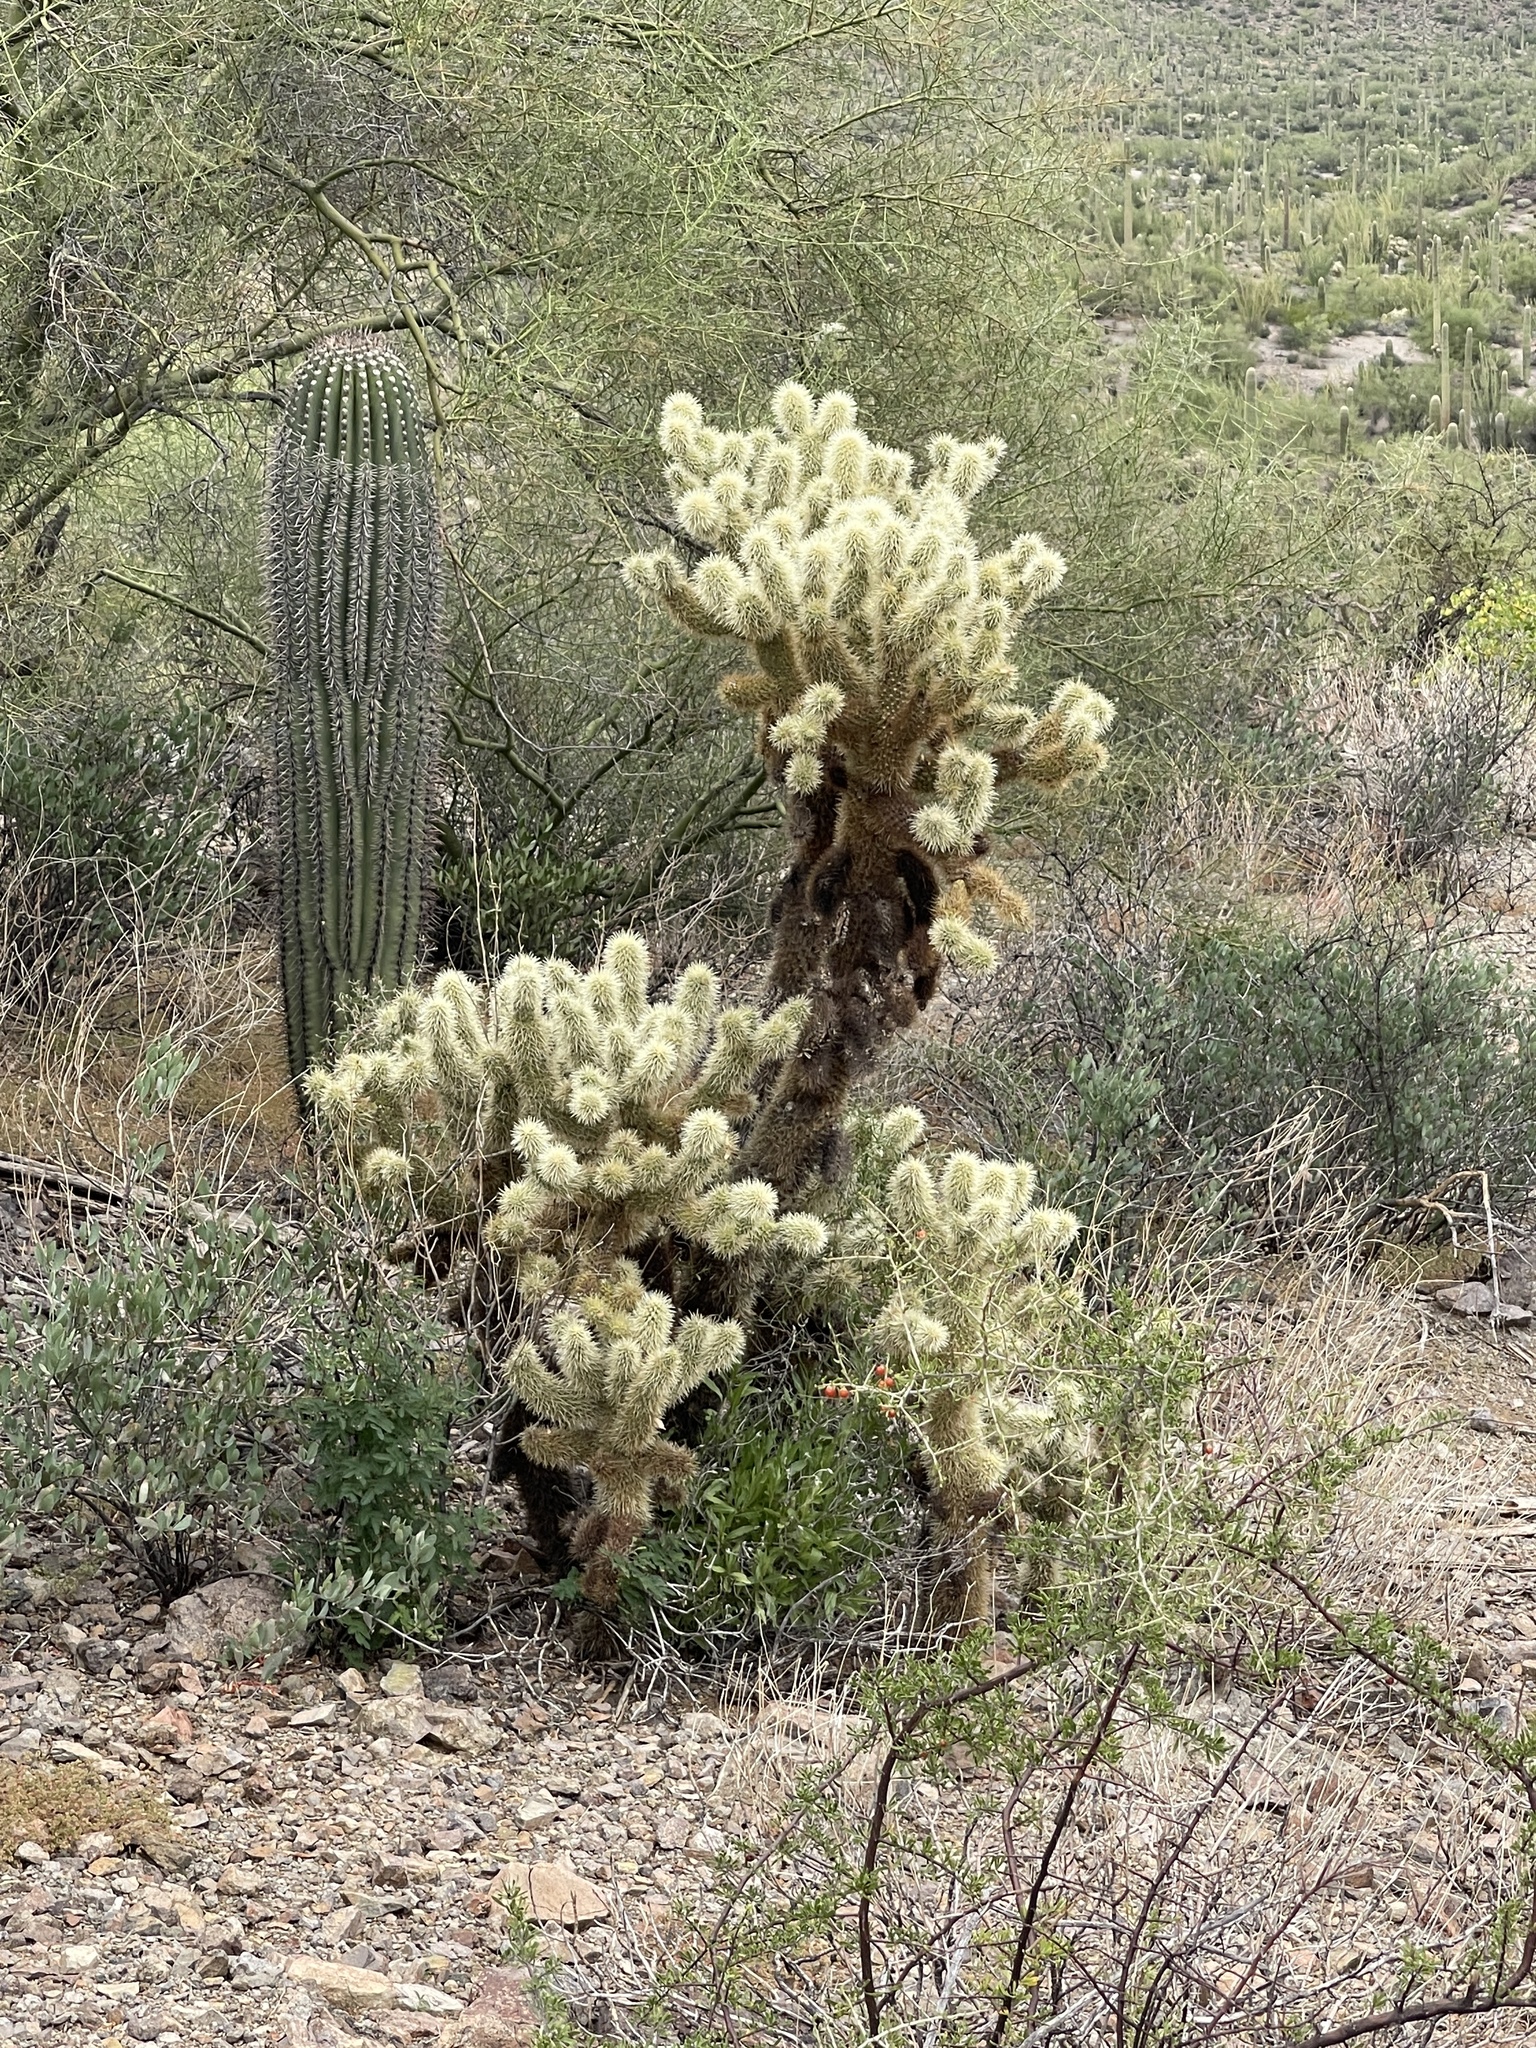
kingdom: Plantae
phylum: Tracheophyta
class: Magnoliopsida
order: Caryophyllales
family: Cactaceae
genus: Cylindropuntia
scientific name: Cylindropuntia fosbergii
